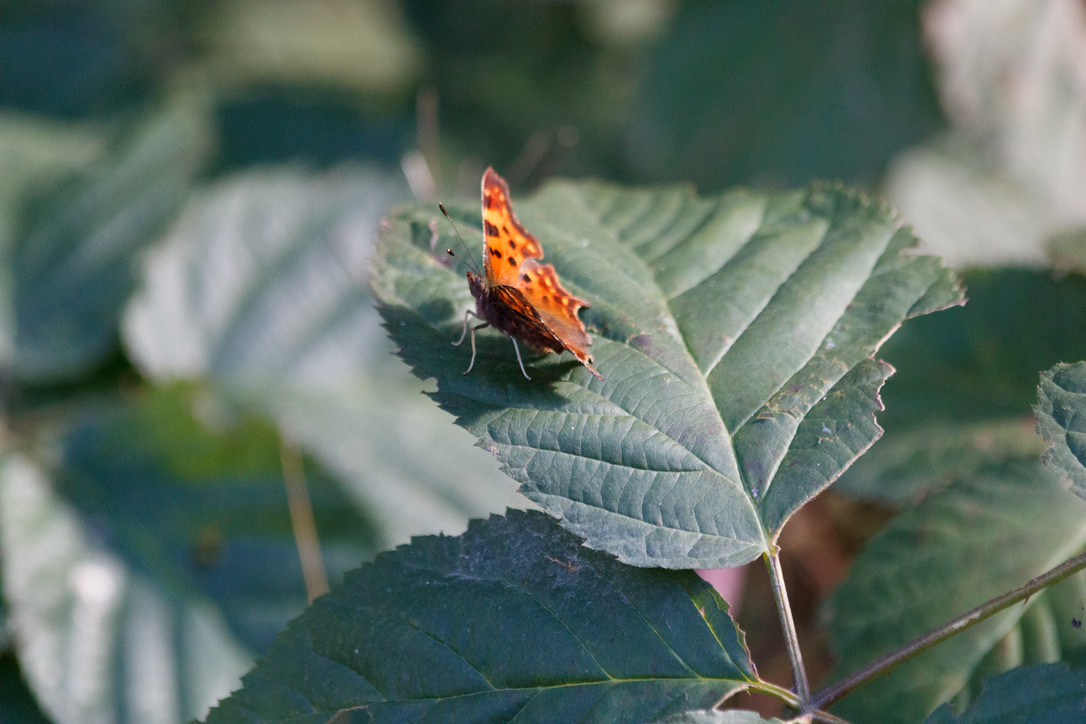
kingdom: Animalia
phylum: Arthropoda
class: Insecta
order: Lepidoptera
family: Nymphalidae
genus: Polygonia
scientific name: Polygonia c-album
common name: Comma
